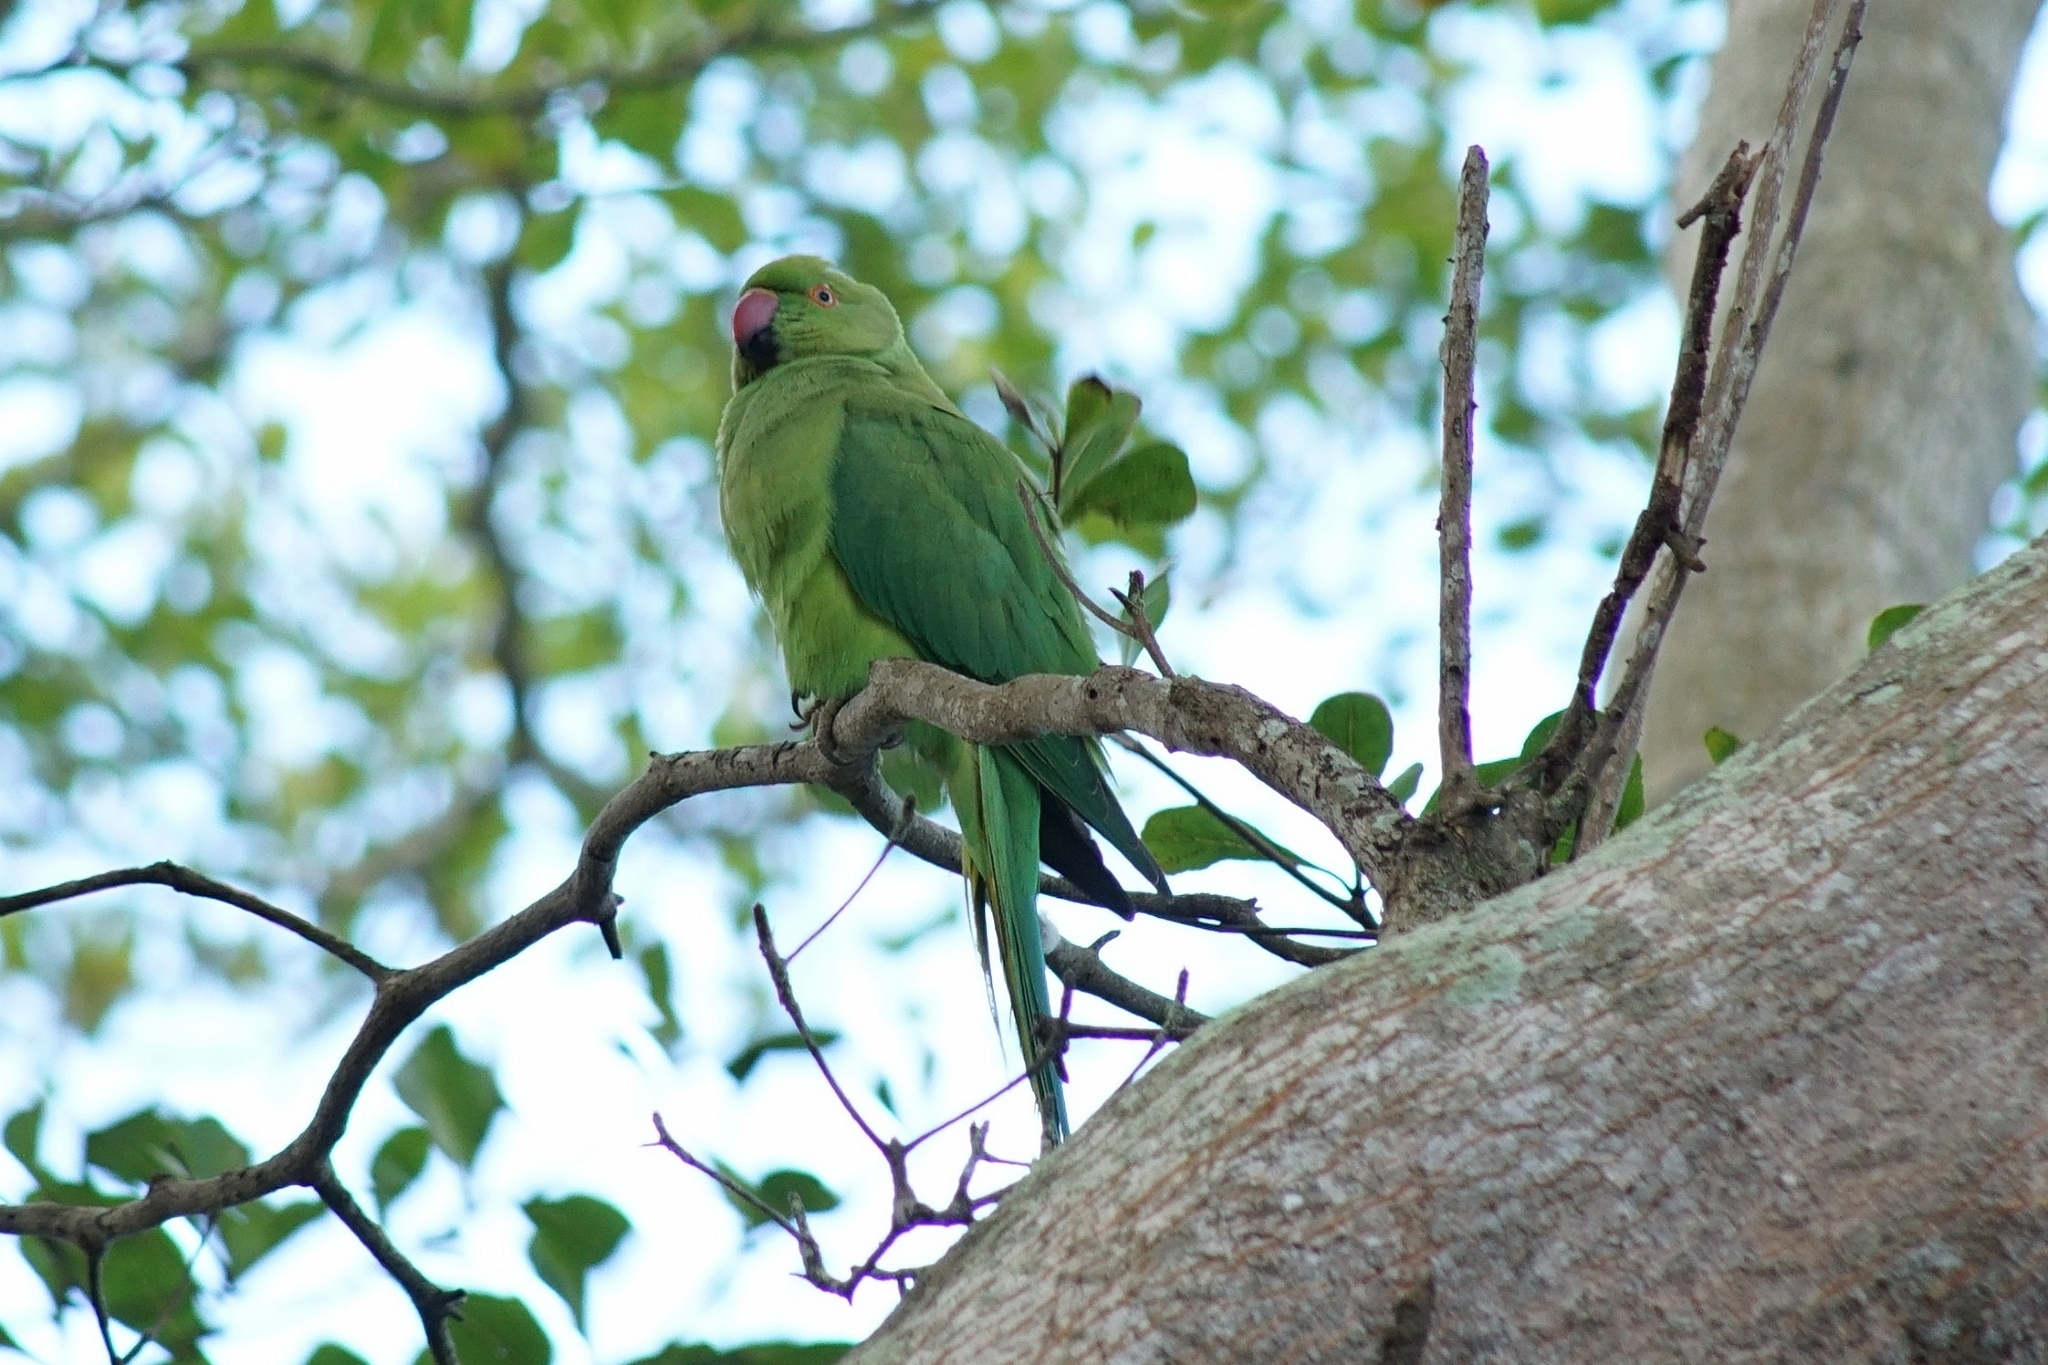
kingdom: Animalia
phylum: Chordata
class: Aves
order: Psittaciformes
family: Psittacidae
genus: Psittacula
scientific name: Psittacula krameri
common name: Rose-ringed parakeet
